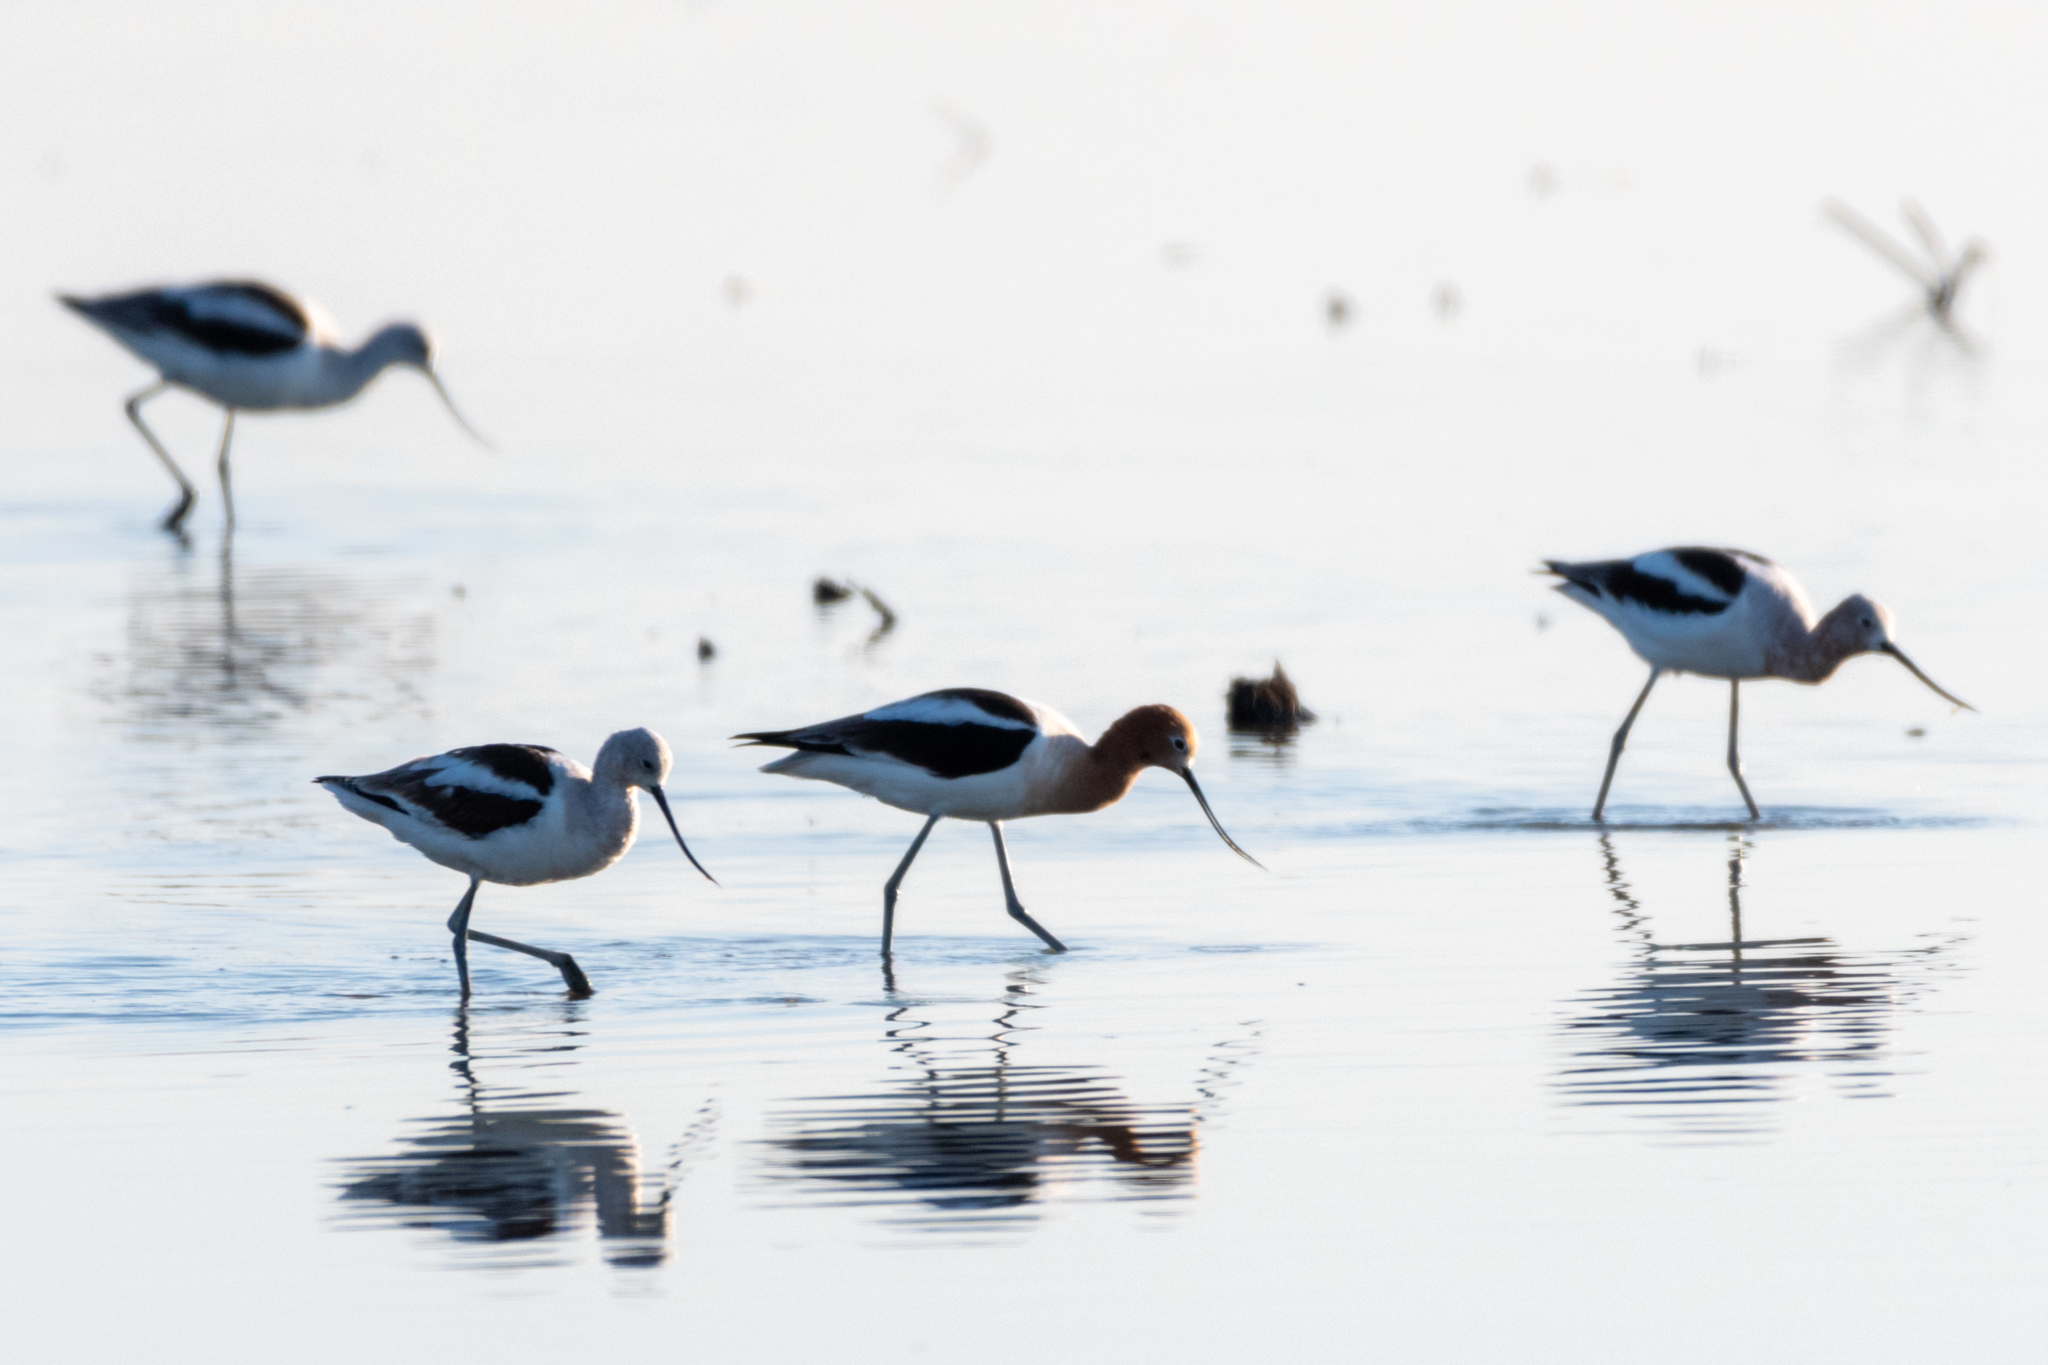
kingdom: Animalia
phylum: Chordata
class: Aves
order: Charadriiformes
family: Recurvirostridae
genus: Recurvirostra
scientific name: Recurvirostra americana
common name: American avocet
